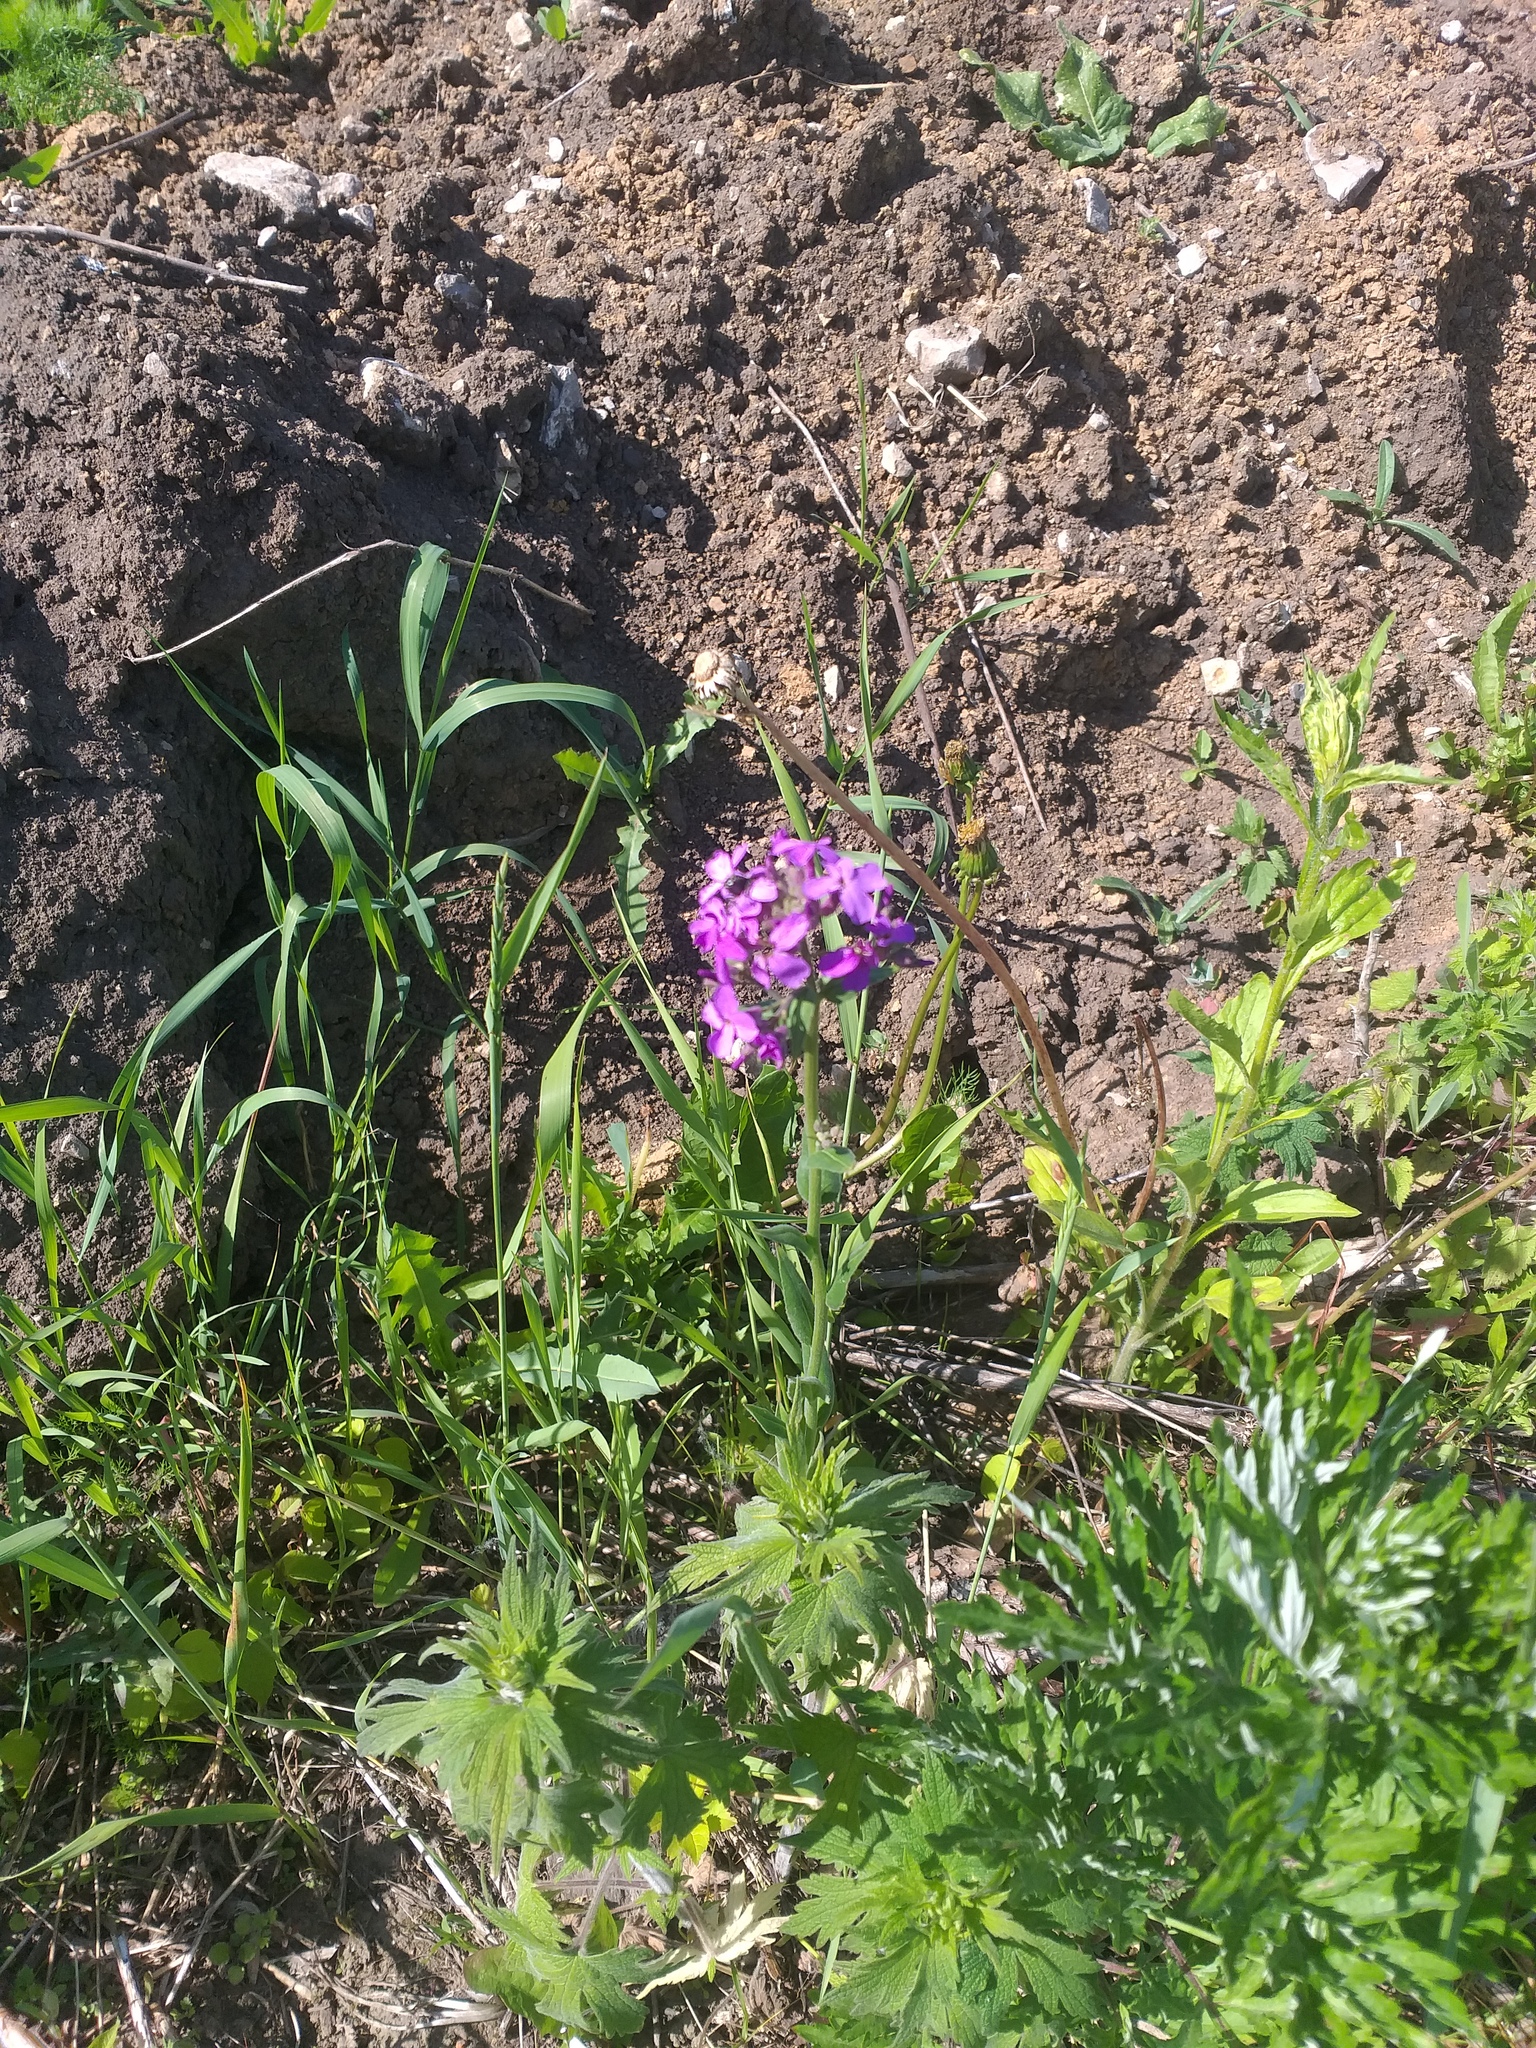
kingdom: Plantae
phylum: Tracheophyta
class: Magnoliopsida
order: Brassicales
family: Brassicaceae
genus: Hesperis
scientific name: Hesperis pycnotricha
